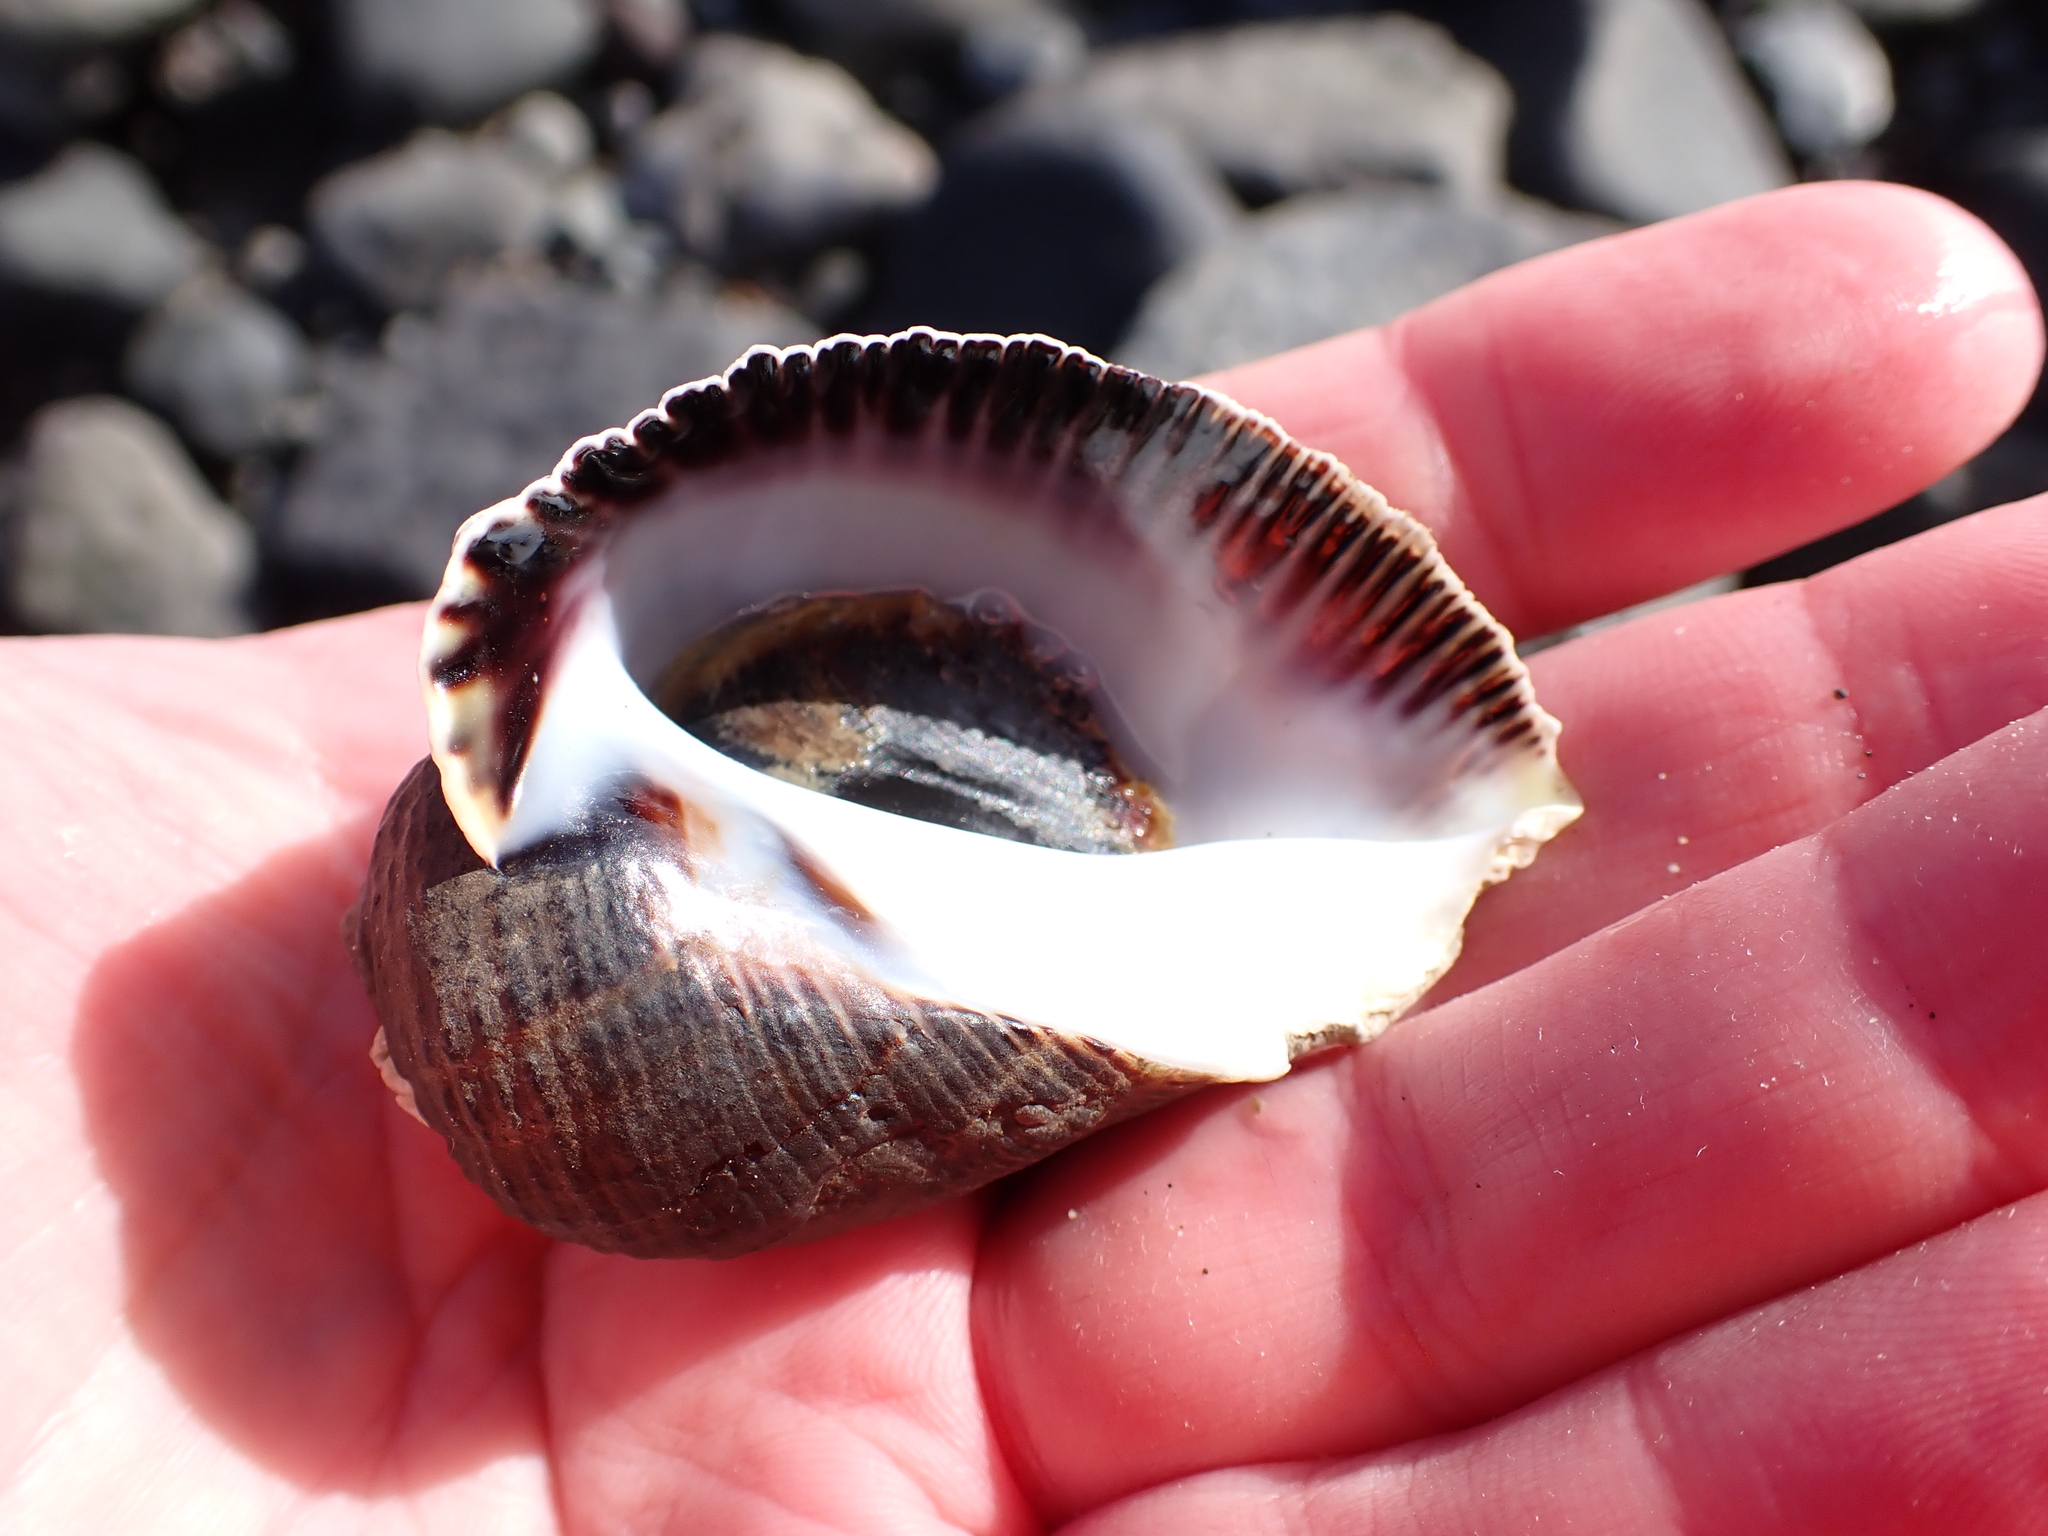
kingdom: Animalia
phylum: Mollusca
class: Gastropoda
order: Neogastropoda
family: Muricidae
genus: Haustrum
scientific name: Haustrum haustorium
